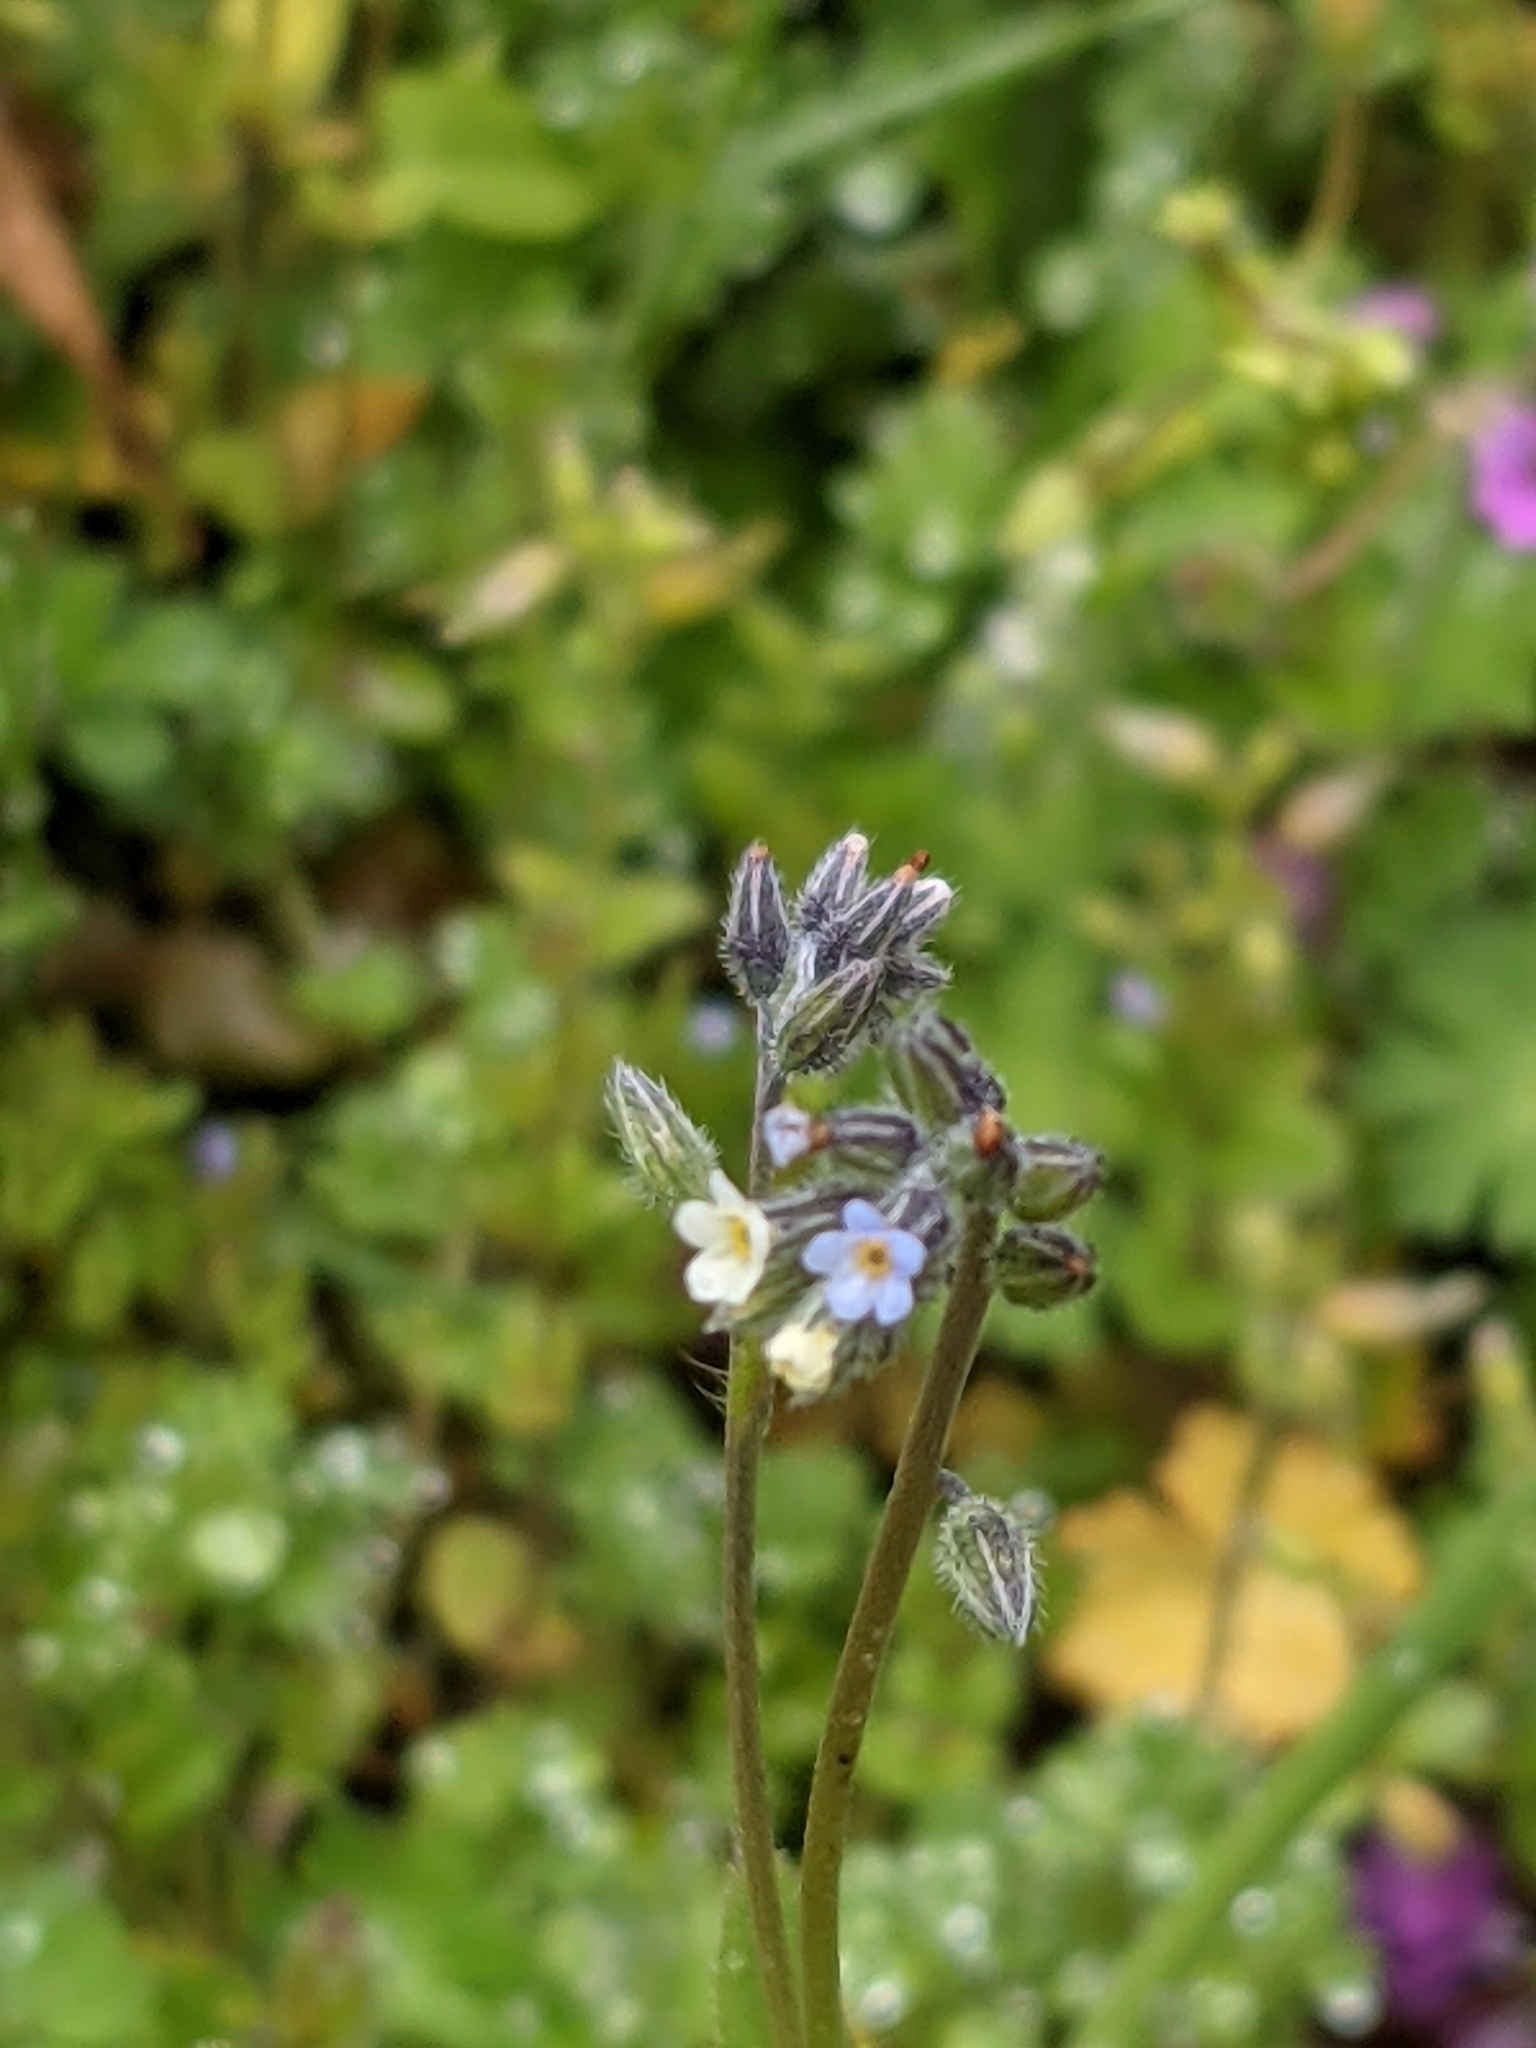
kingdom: Plantae
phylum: Tracheophyta
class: Magnoliopsida
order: Boraginales
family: Boraginaceae
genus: Myosotis
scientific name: Myosotis discolor
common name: Changing forget-me-not
